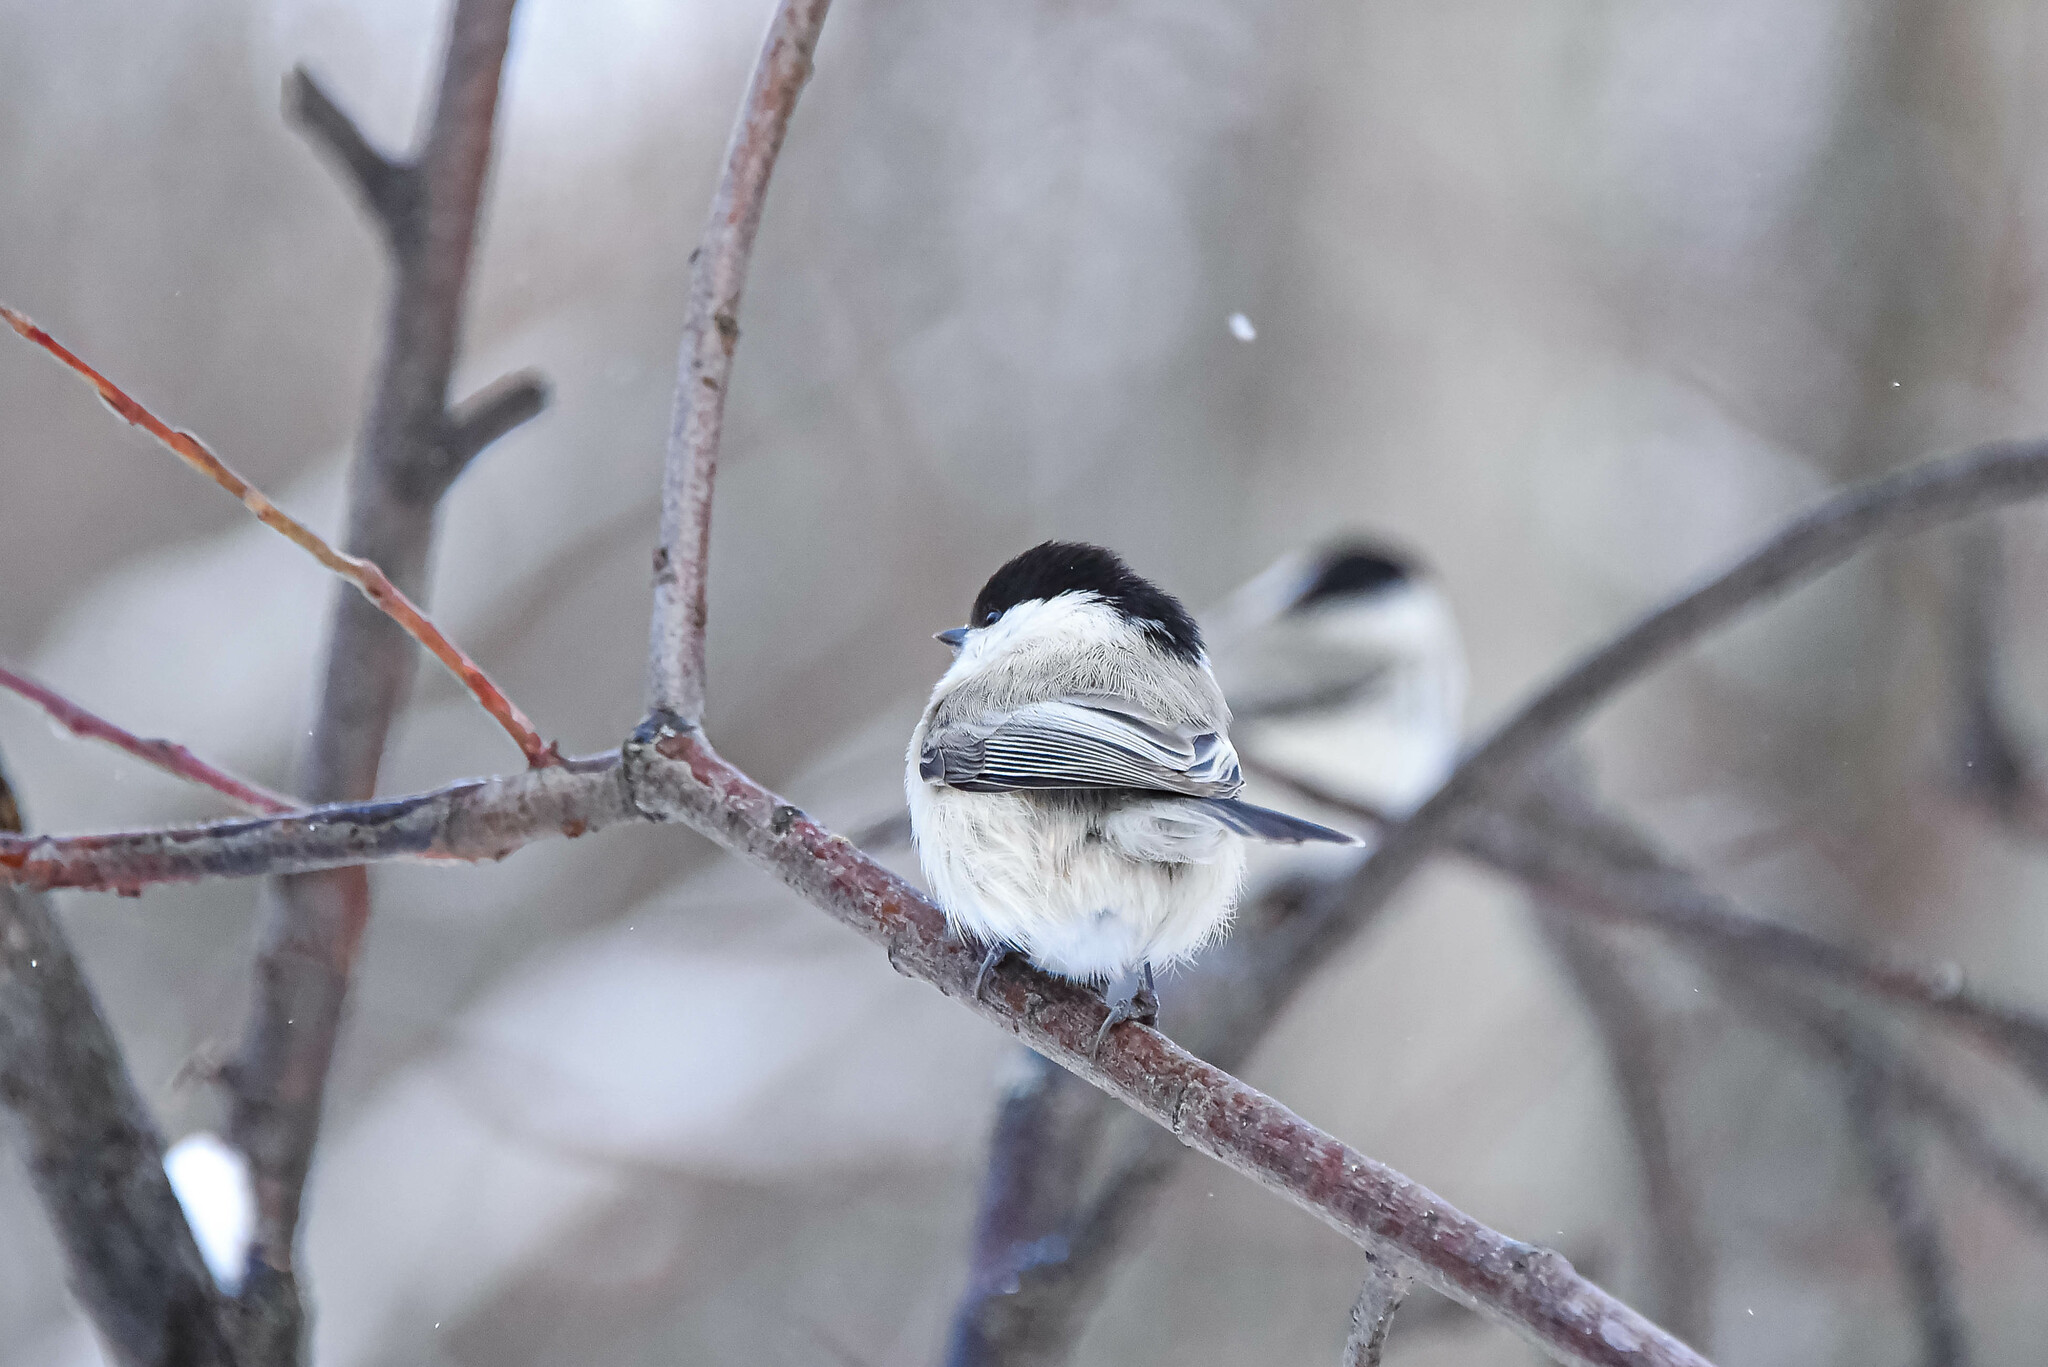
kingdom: Animalia
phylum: Chordata
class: Aves
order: Passeriformes
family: Paridae
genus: Poecile
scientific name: Poecile montanus
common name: Willow tit
